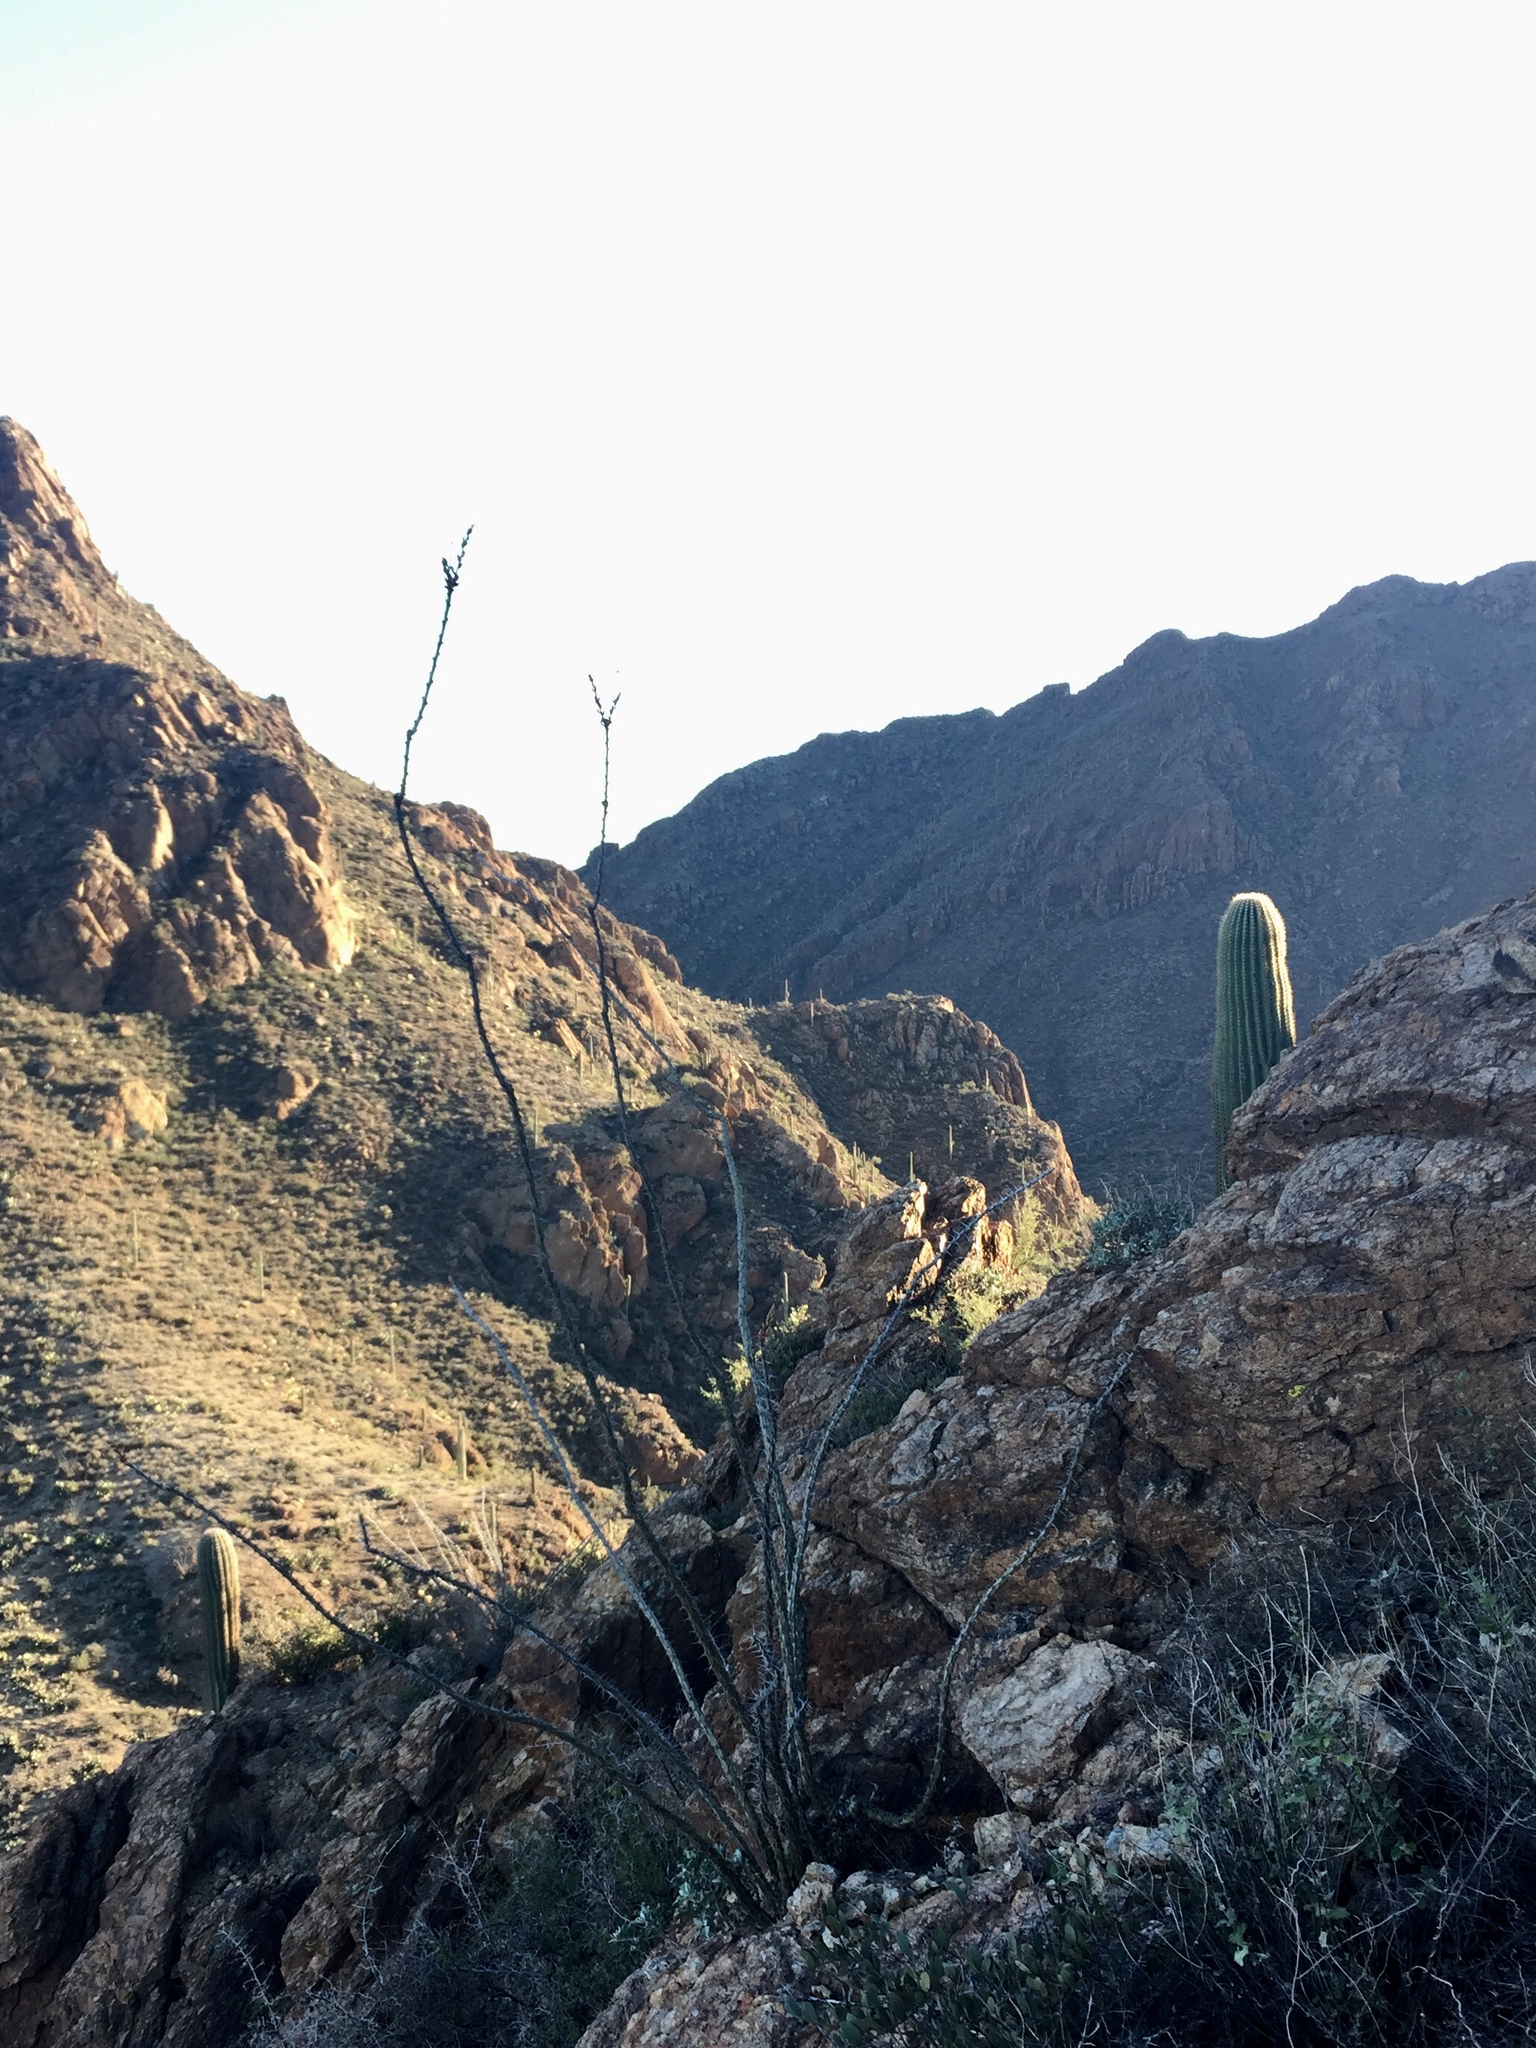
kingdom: Plantae
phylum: Tracheophyta
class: Magnoliopsida
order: Ericales
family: Fouquieriaceae
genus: Fouquieria
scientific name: Fouquieria splendens
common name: Vine-cactus
